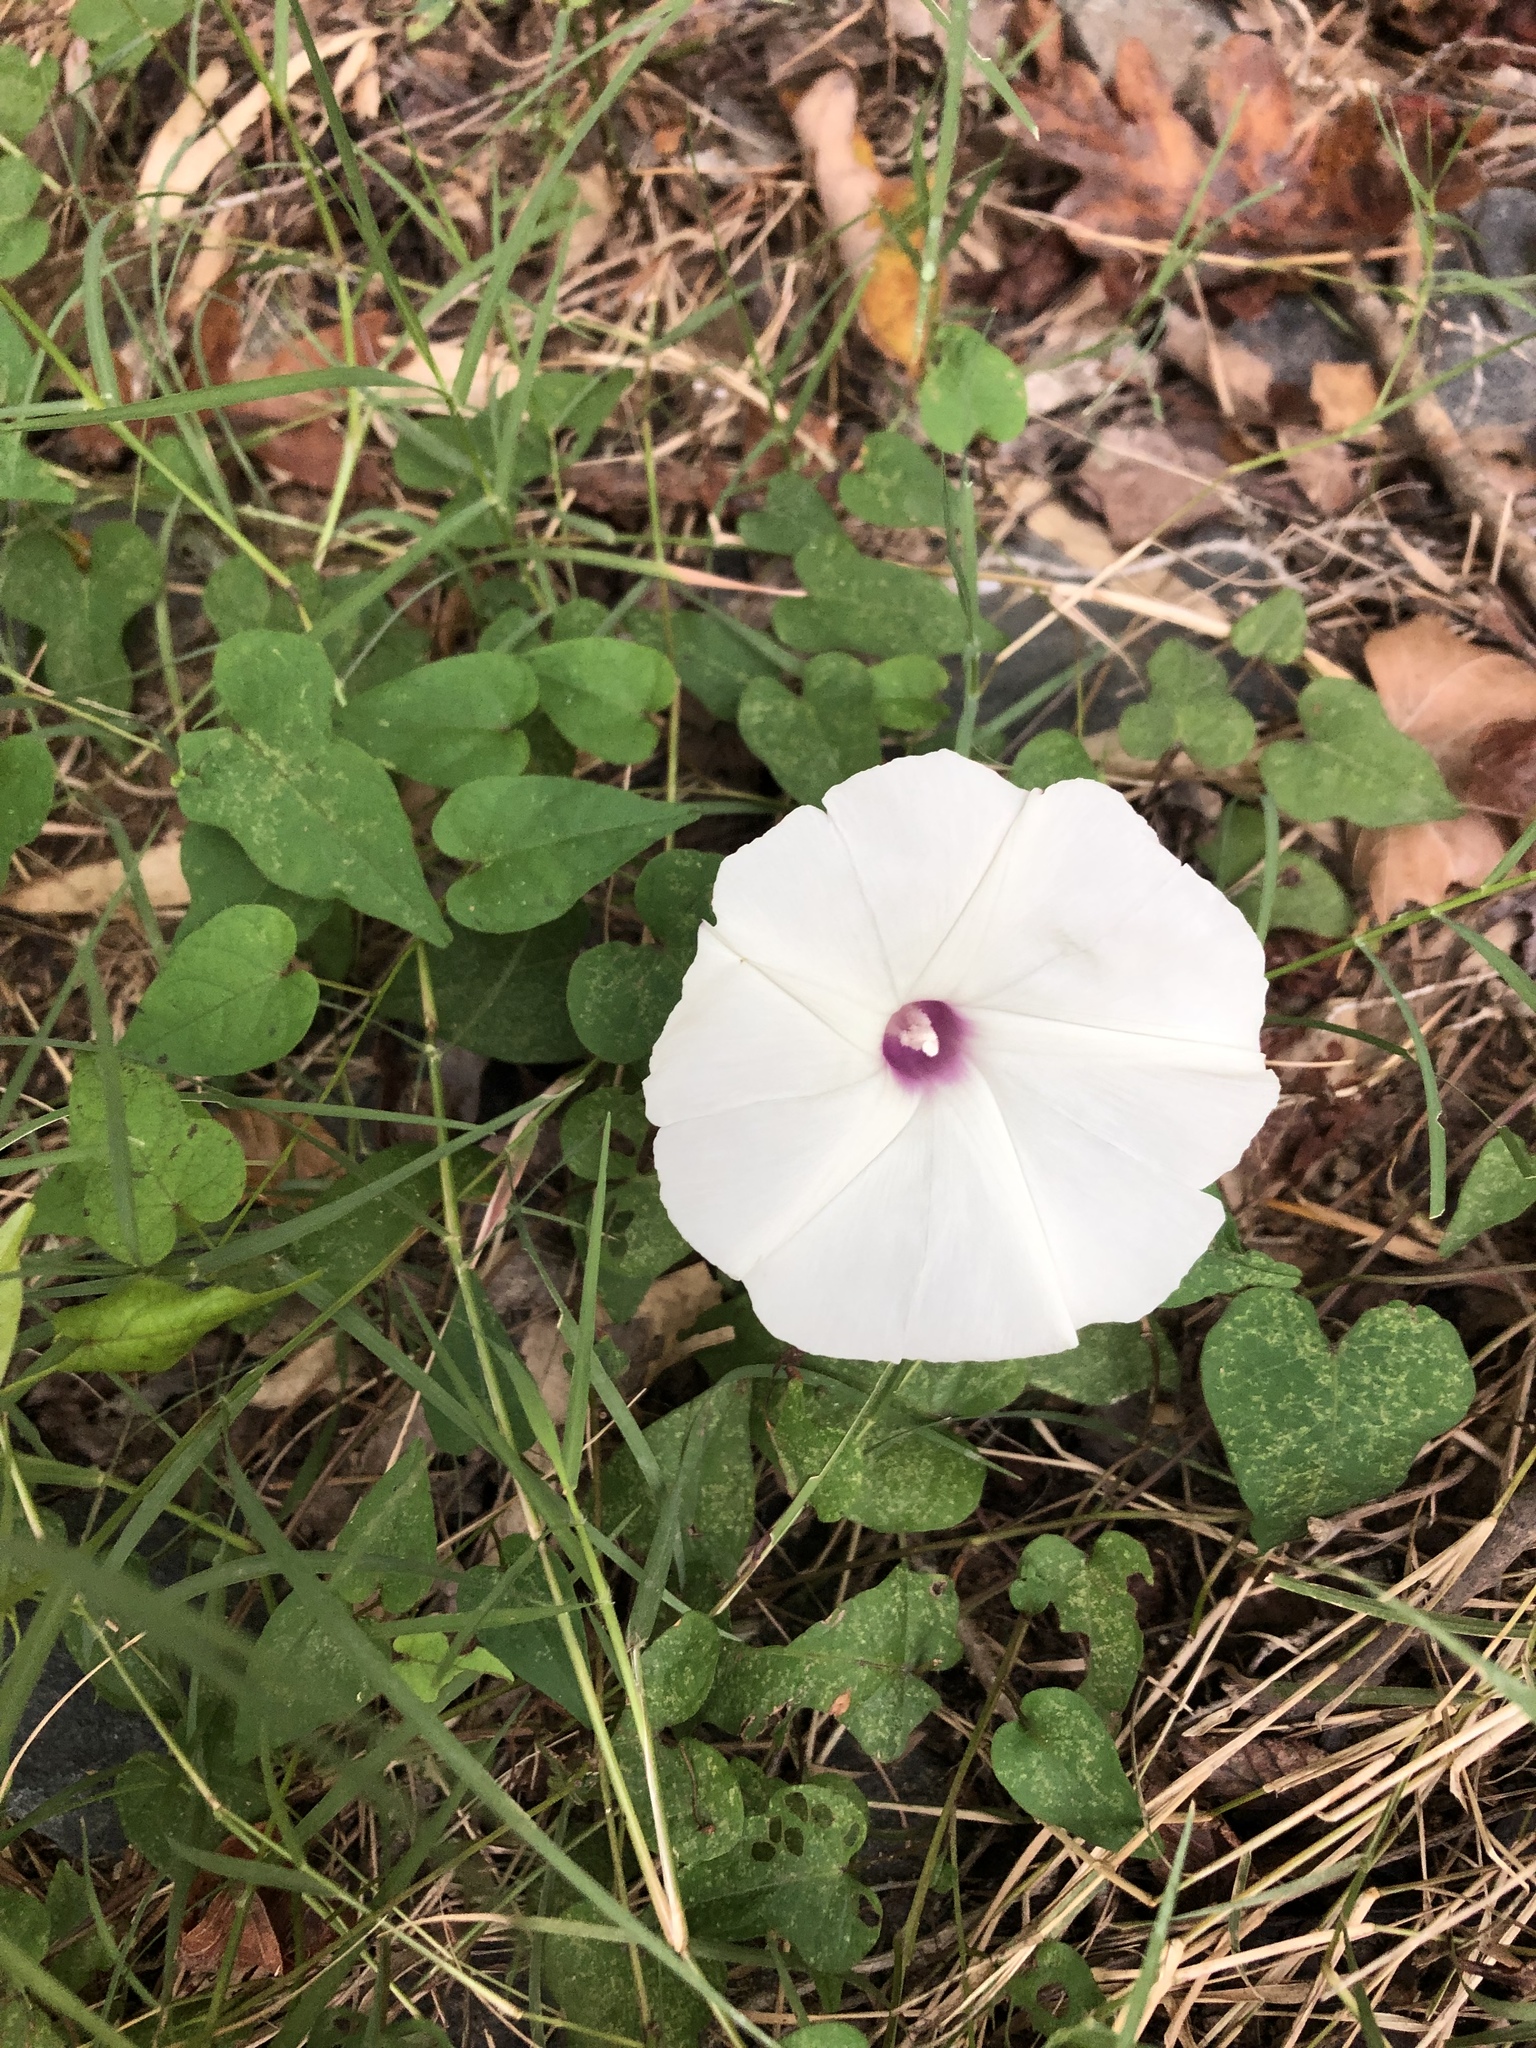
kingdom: Plantae
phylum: Tracheophyta
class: Magnoliopsida
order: Solanales
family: Convolvulaceae
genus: Ipomoea
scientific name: Ipomoea pandurata
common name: Man-of-the-earth
